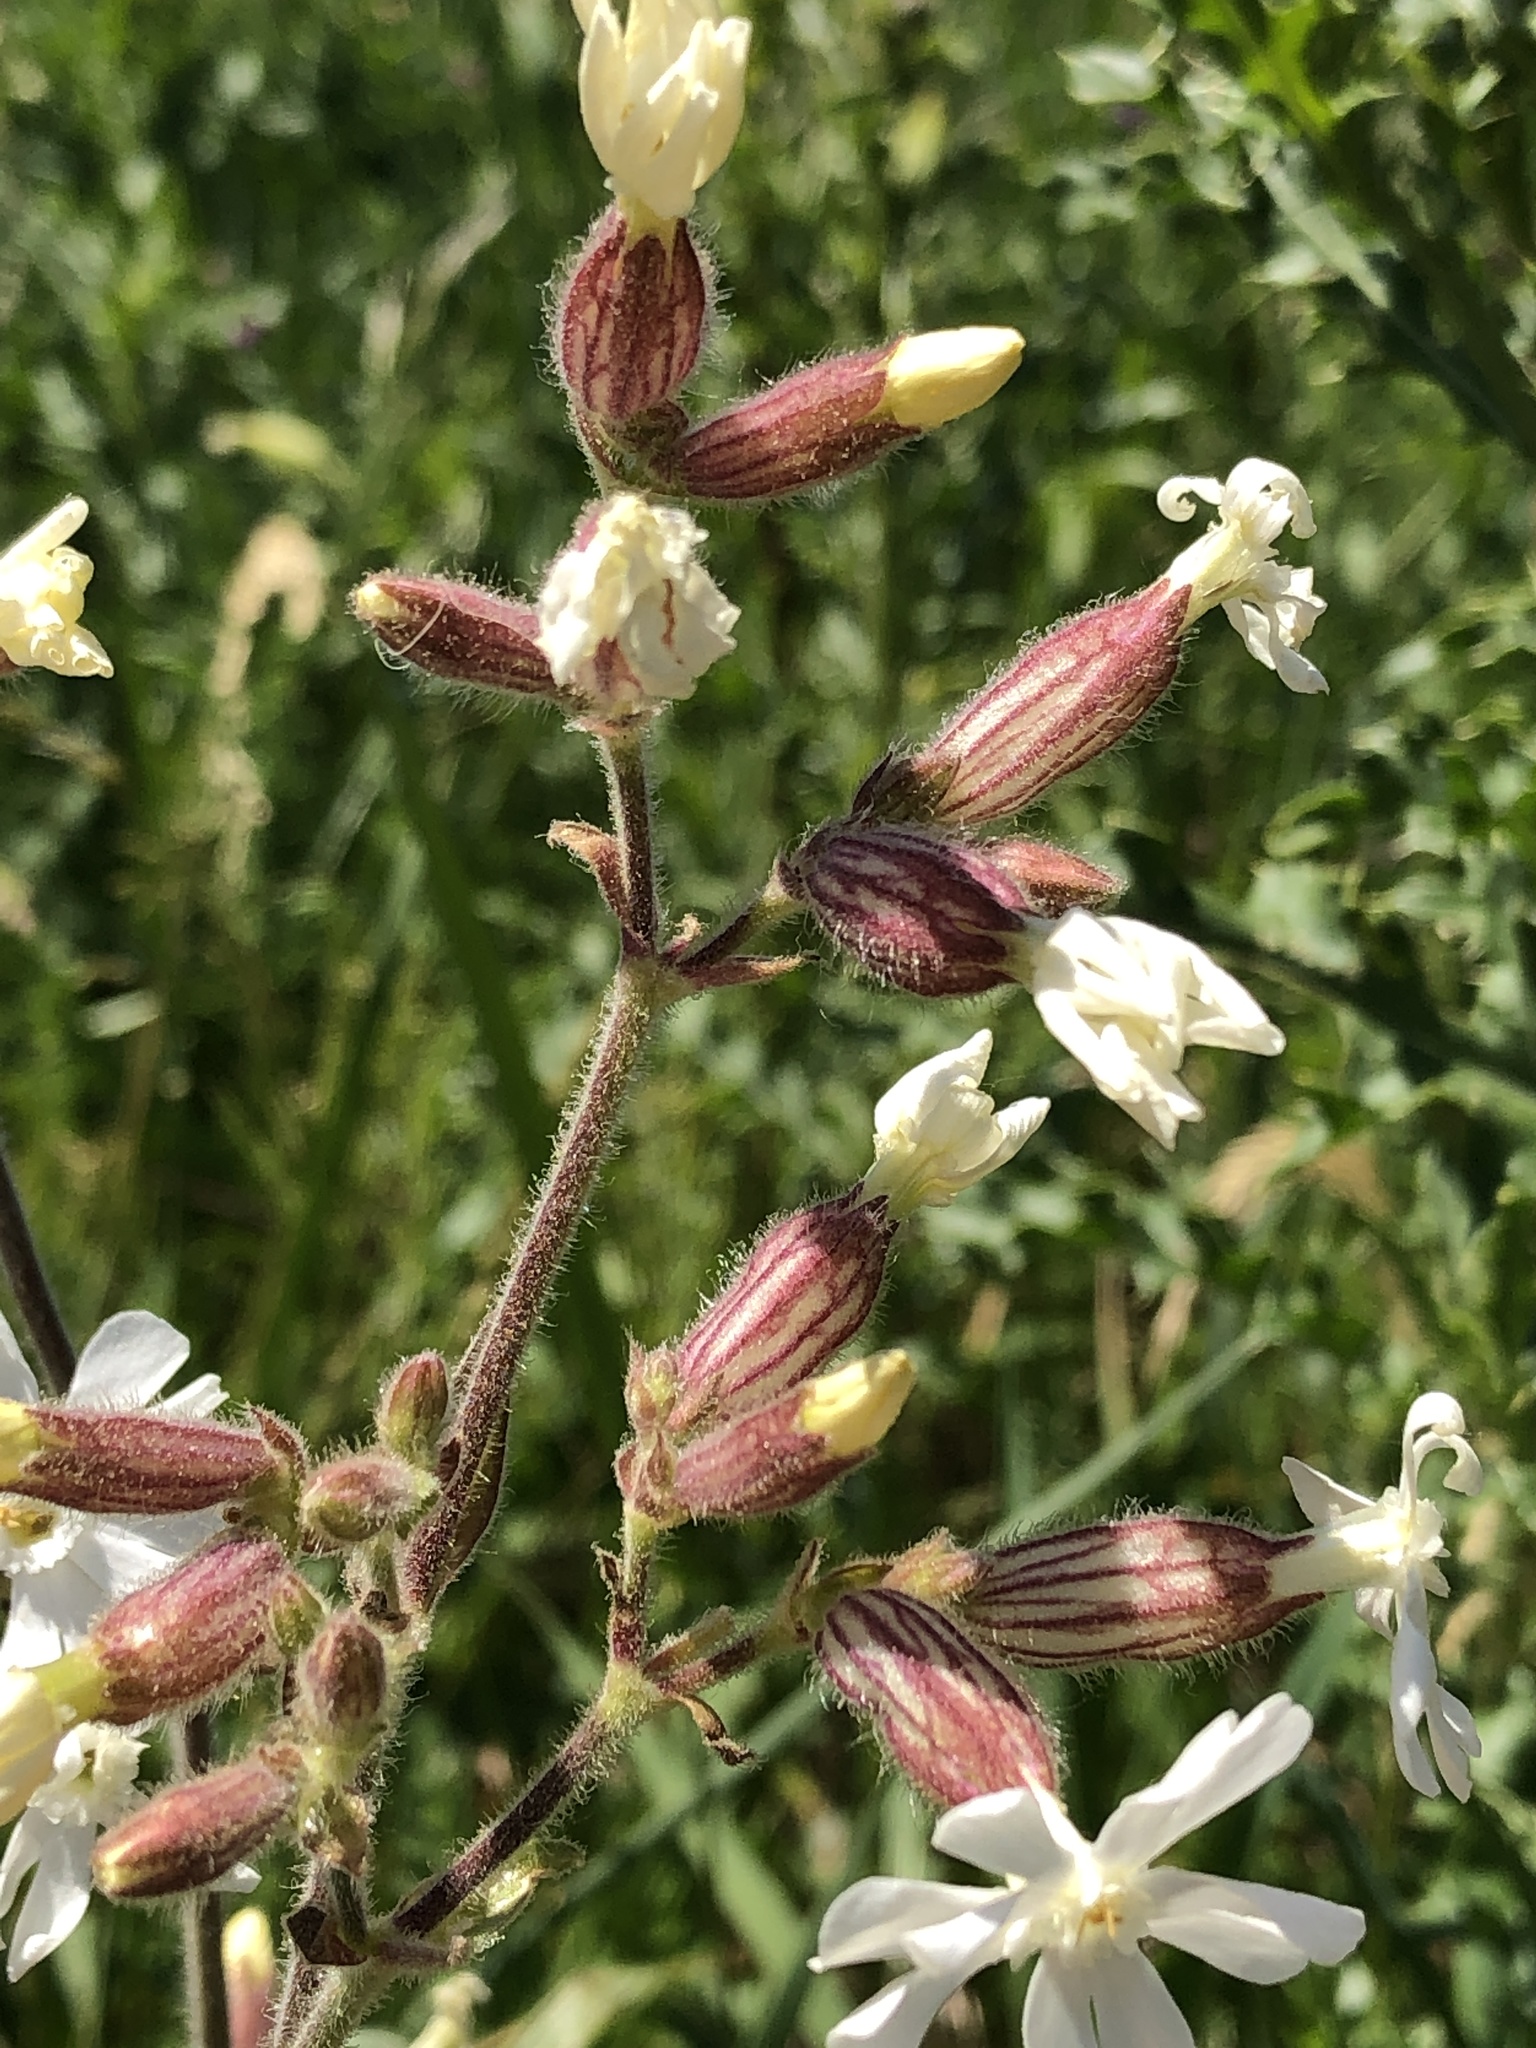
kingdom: Plantae
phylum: Tracheophyta
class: Magnoliopsida
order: Caryophyllales
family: Caryophyllaceae
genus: Silene
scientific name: Silene latifolia
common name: White campion
